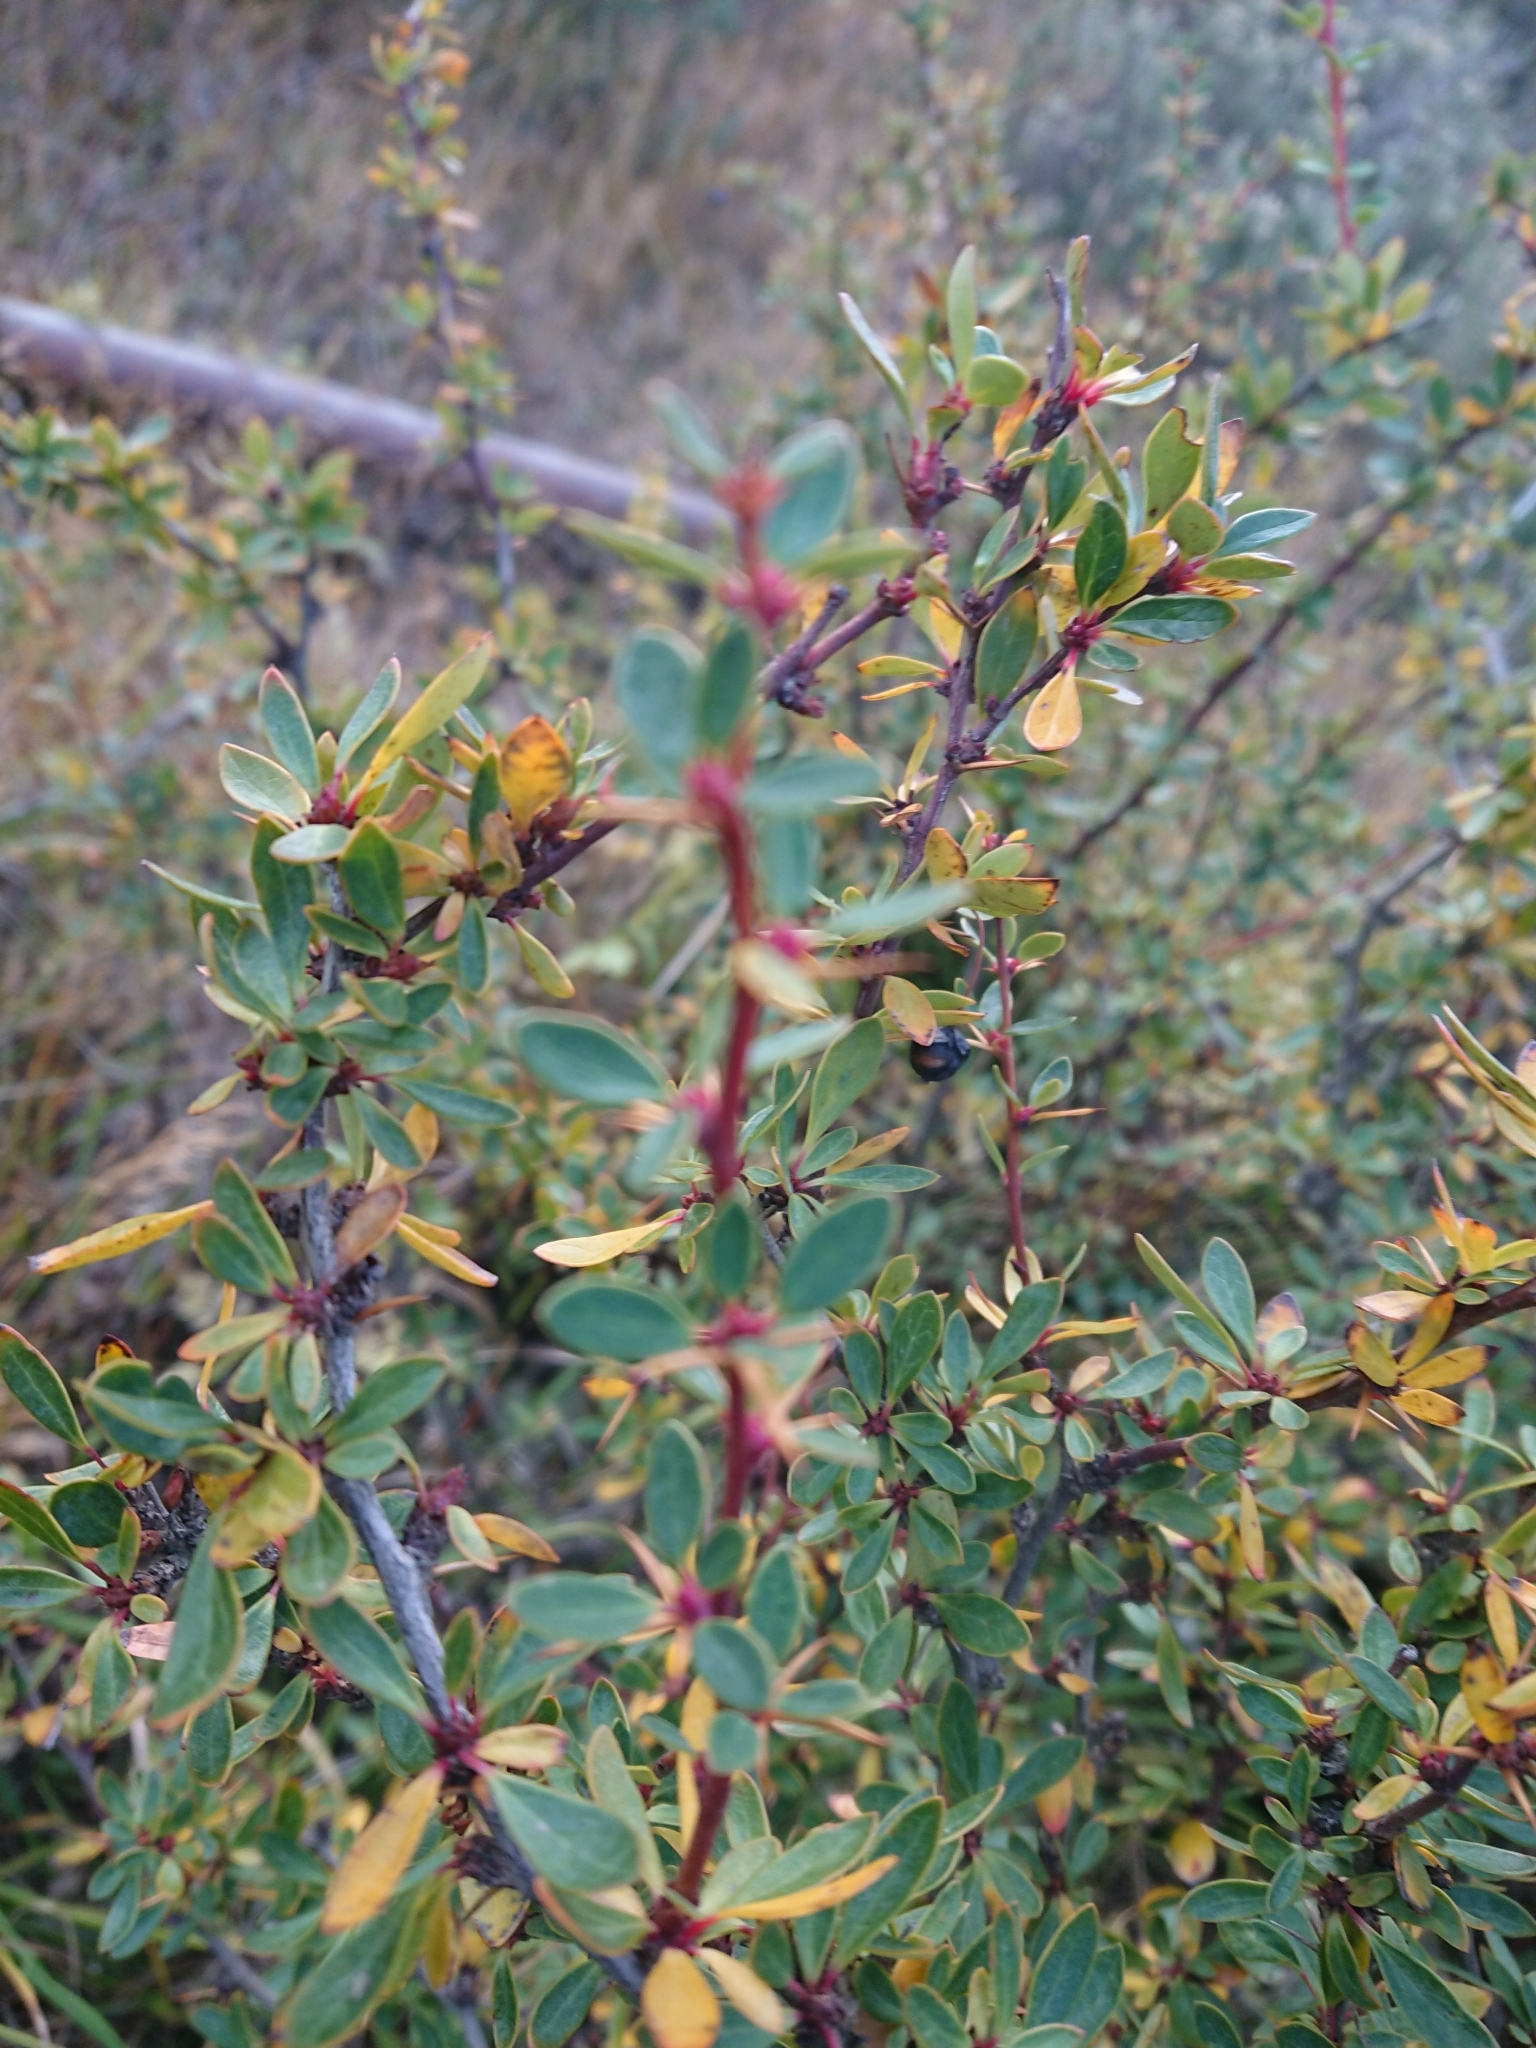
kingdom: Plantae
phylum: Tracheophyta
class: Magnoliopsida
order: Ranunculales
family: Berberidaceae
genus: Berberis
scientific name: Berberis microphylla
